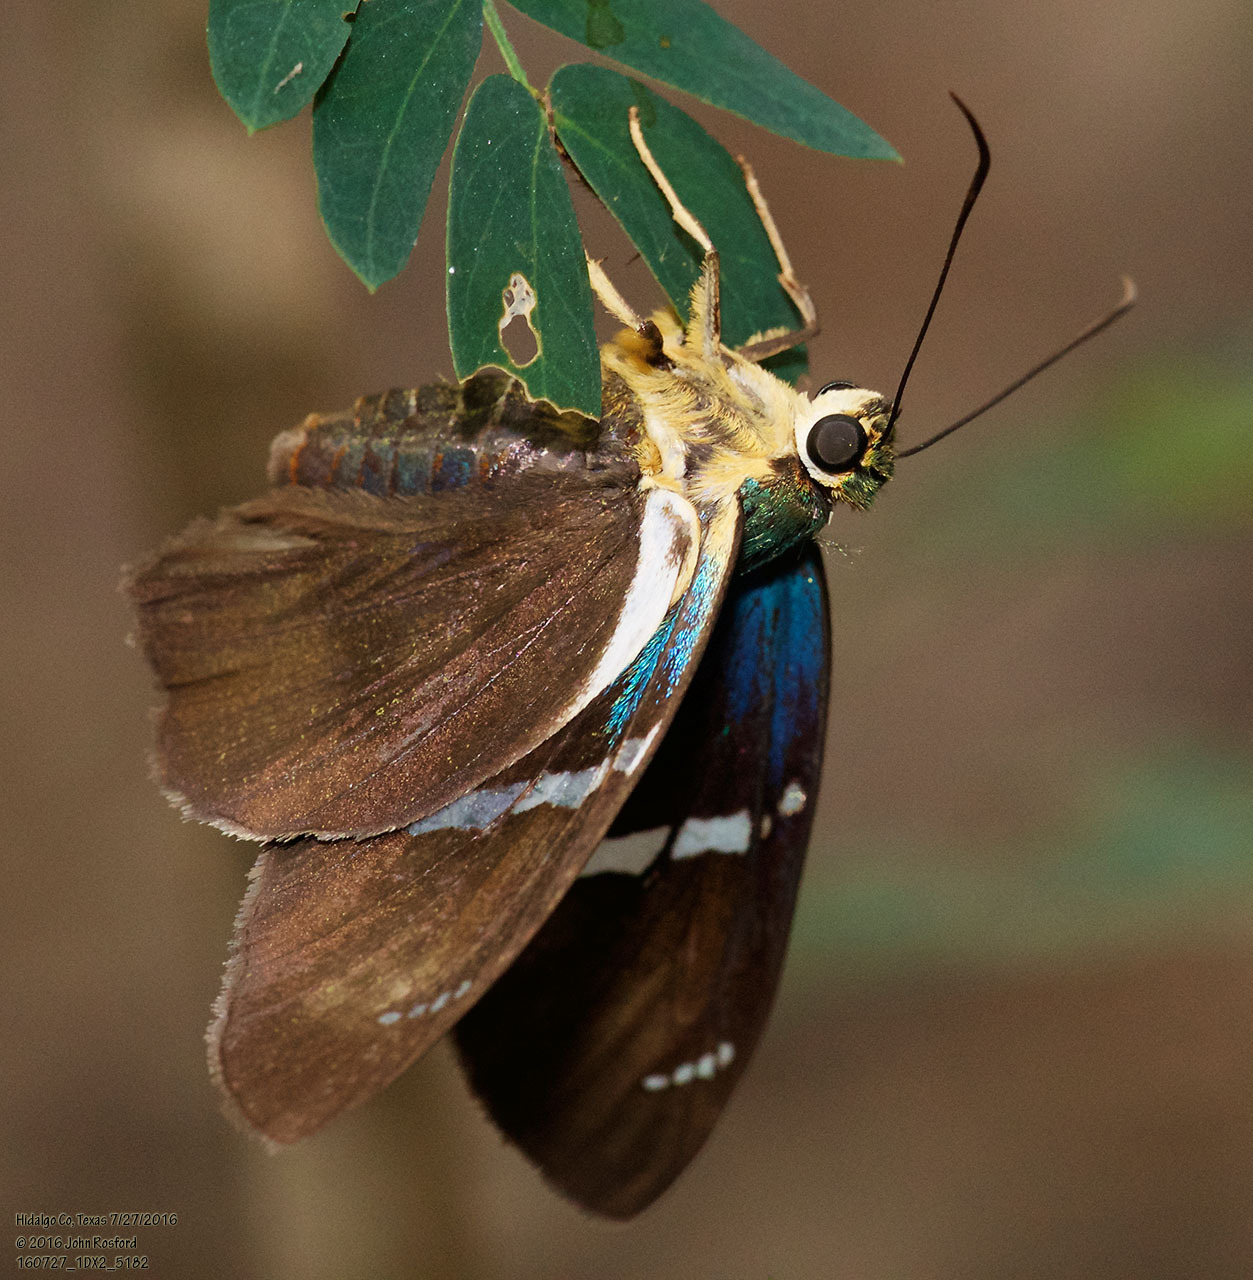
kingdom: Animalia
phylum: Arthropoda
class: Insecta
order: Lepidoptera
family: Hesperiidae
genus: Astraptes
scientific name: Astraptes fulgerator
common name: Two-barred flasher
